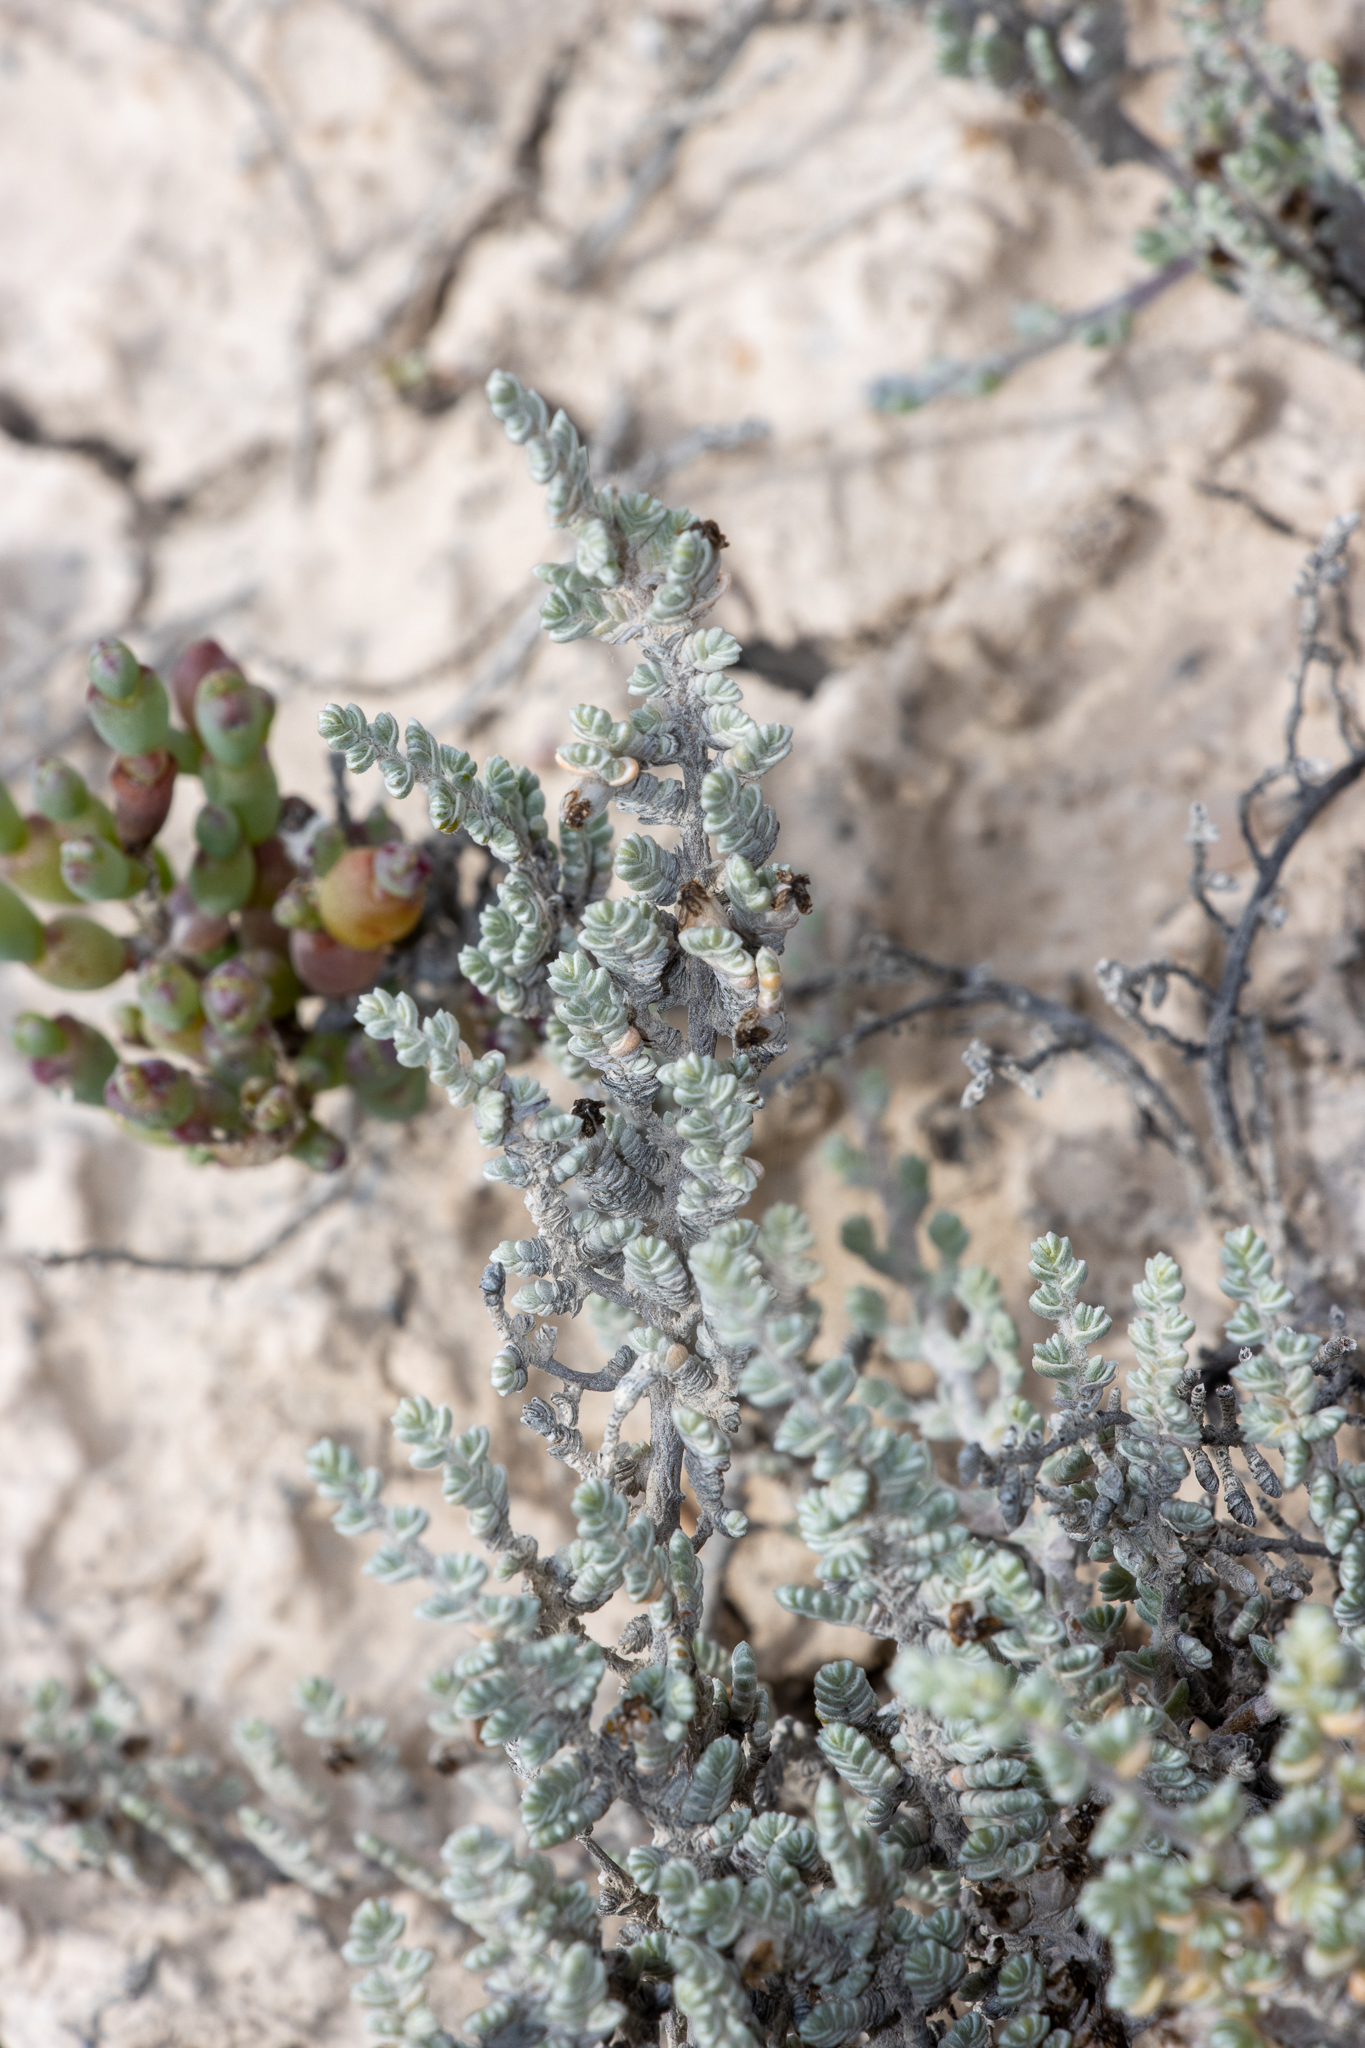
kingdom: Plantae
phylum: Tracheophyta
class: Magnoliopsida
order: Solanales
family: Convolvulaceae
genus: Wilsonia
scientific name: Wilsonia humilis
